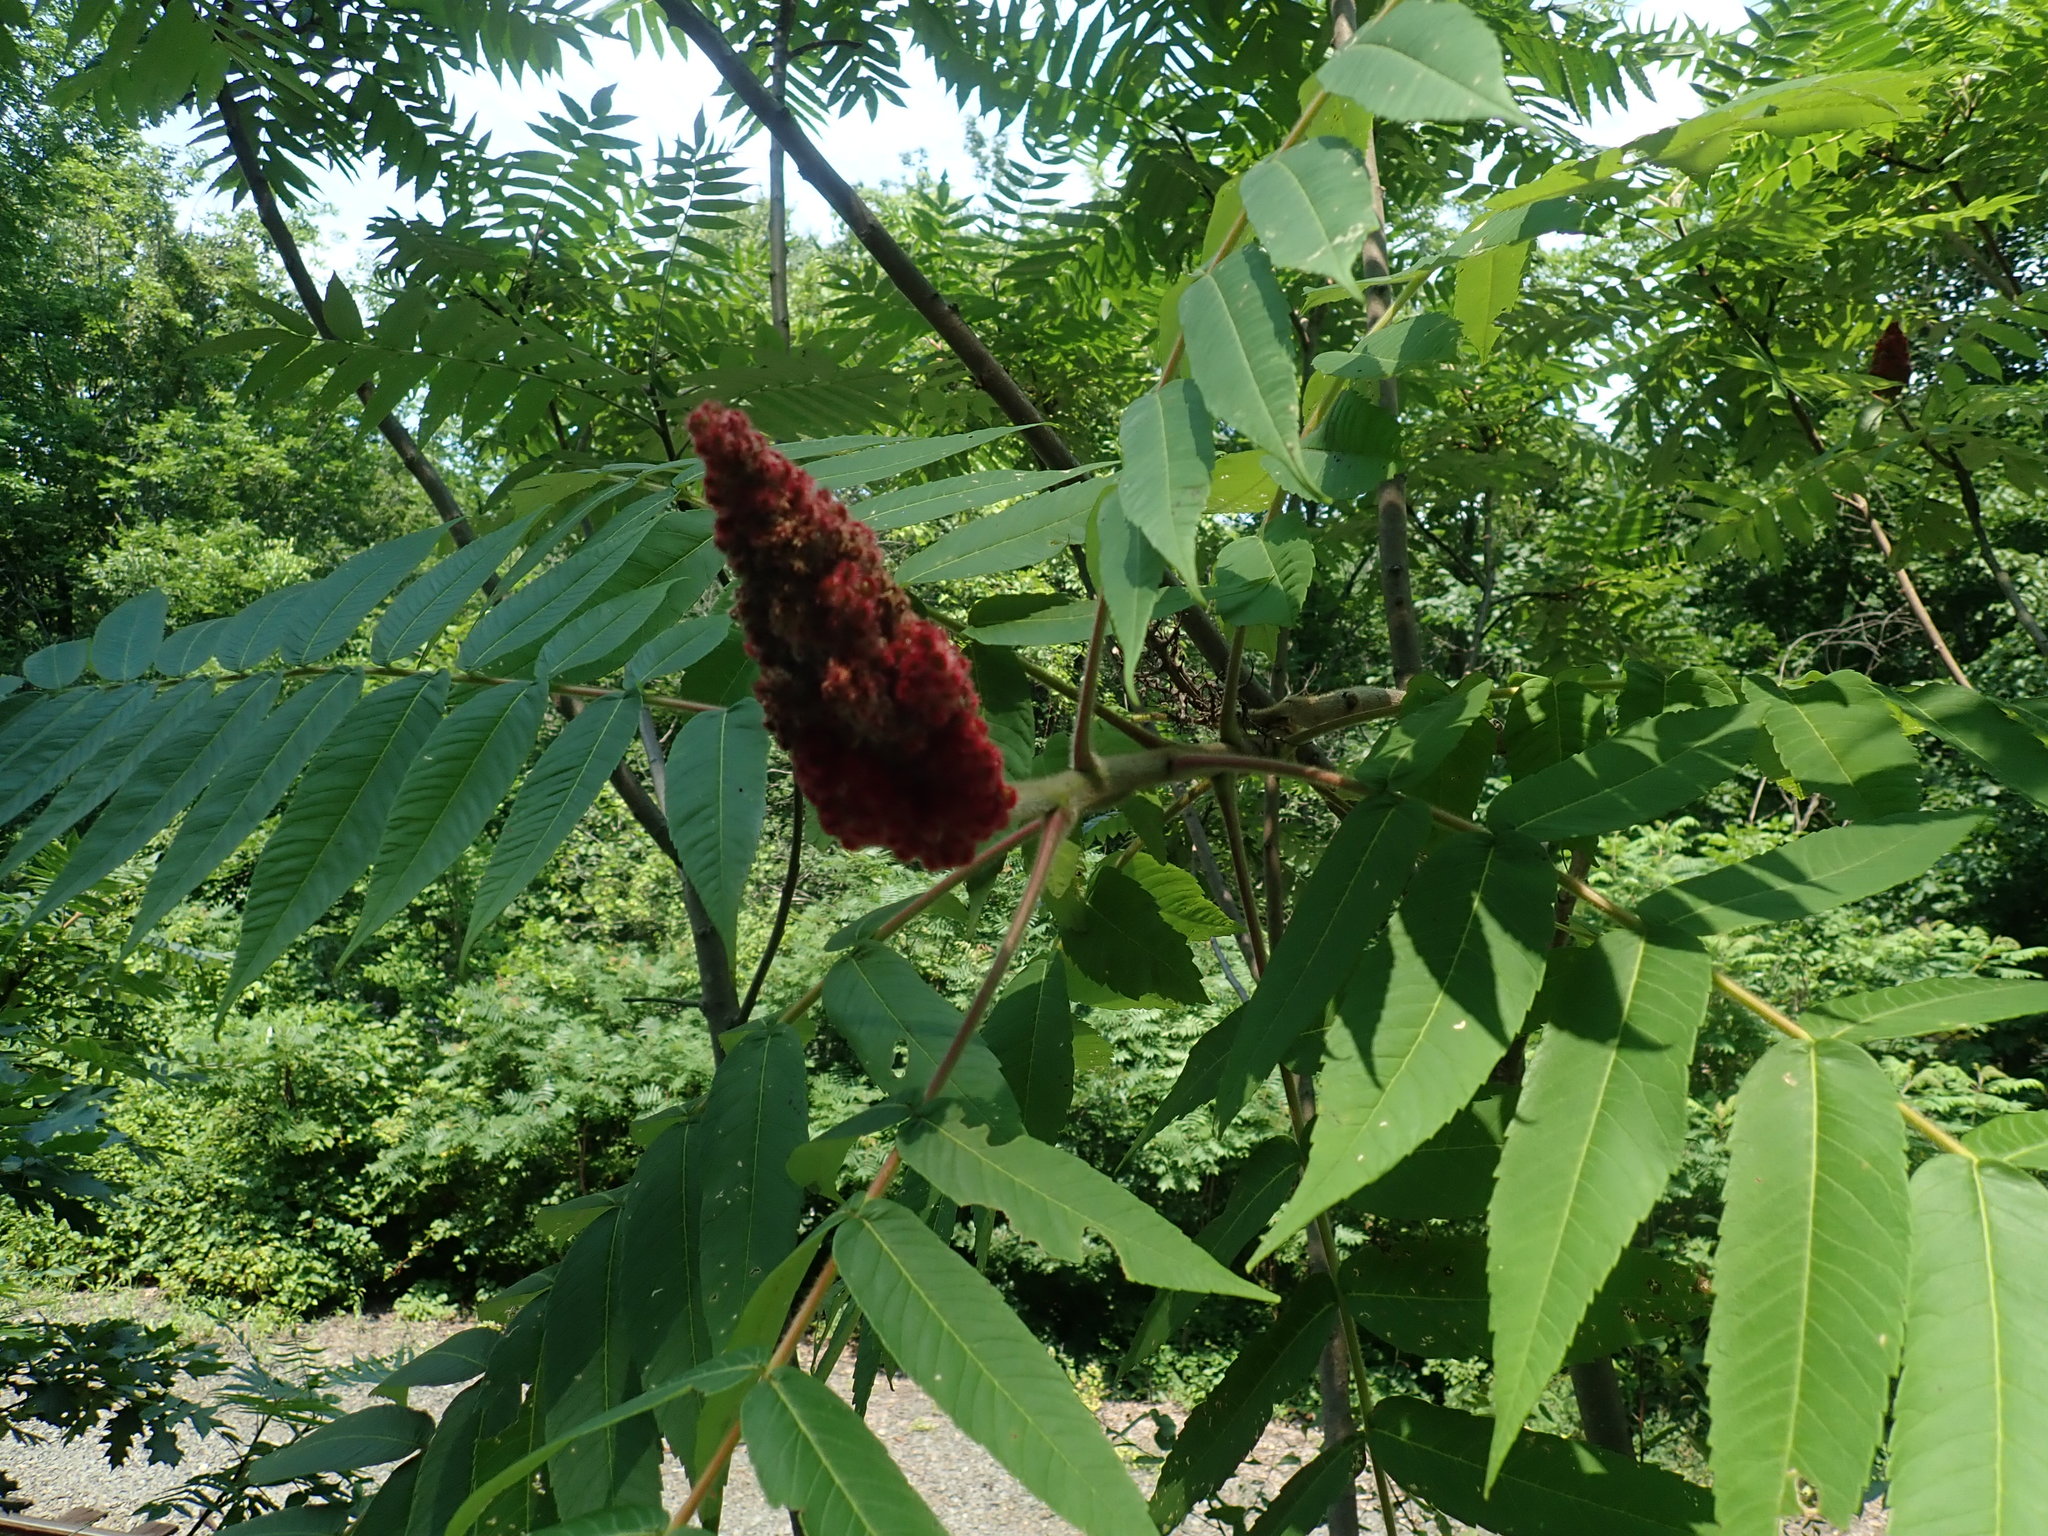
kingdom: Plantae
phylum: Tracheophyta
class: Magnoliopsida
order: Sapindales
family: Anacardiaceae
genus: Rhus
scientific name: Rhus typhina
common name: Staghorn sumac
